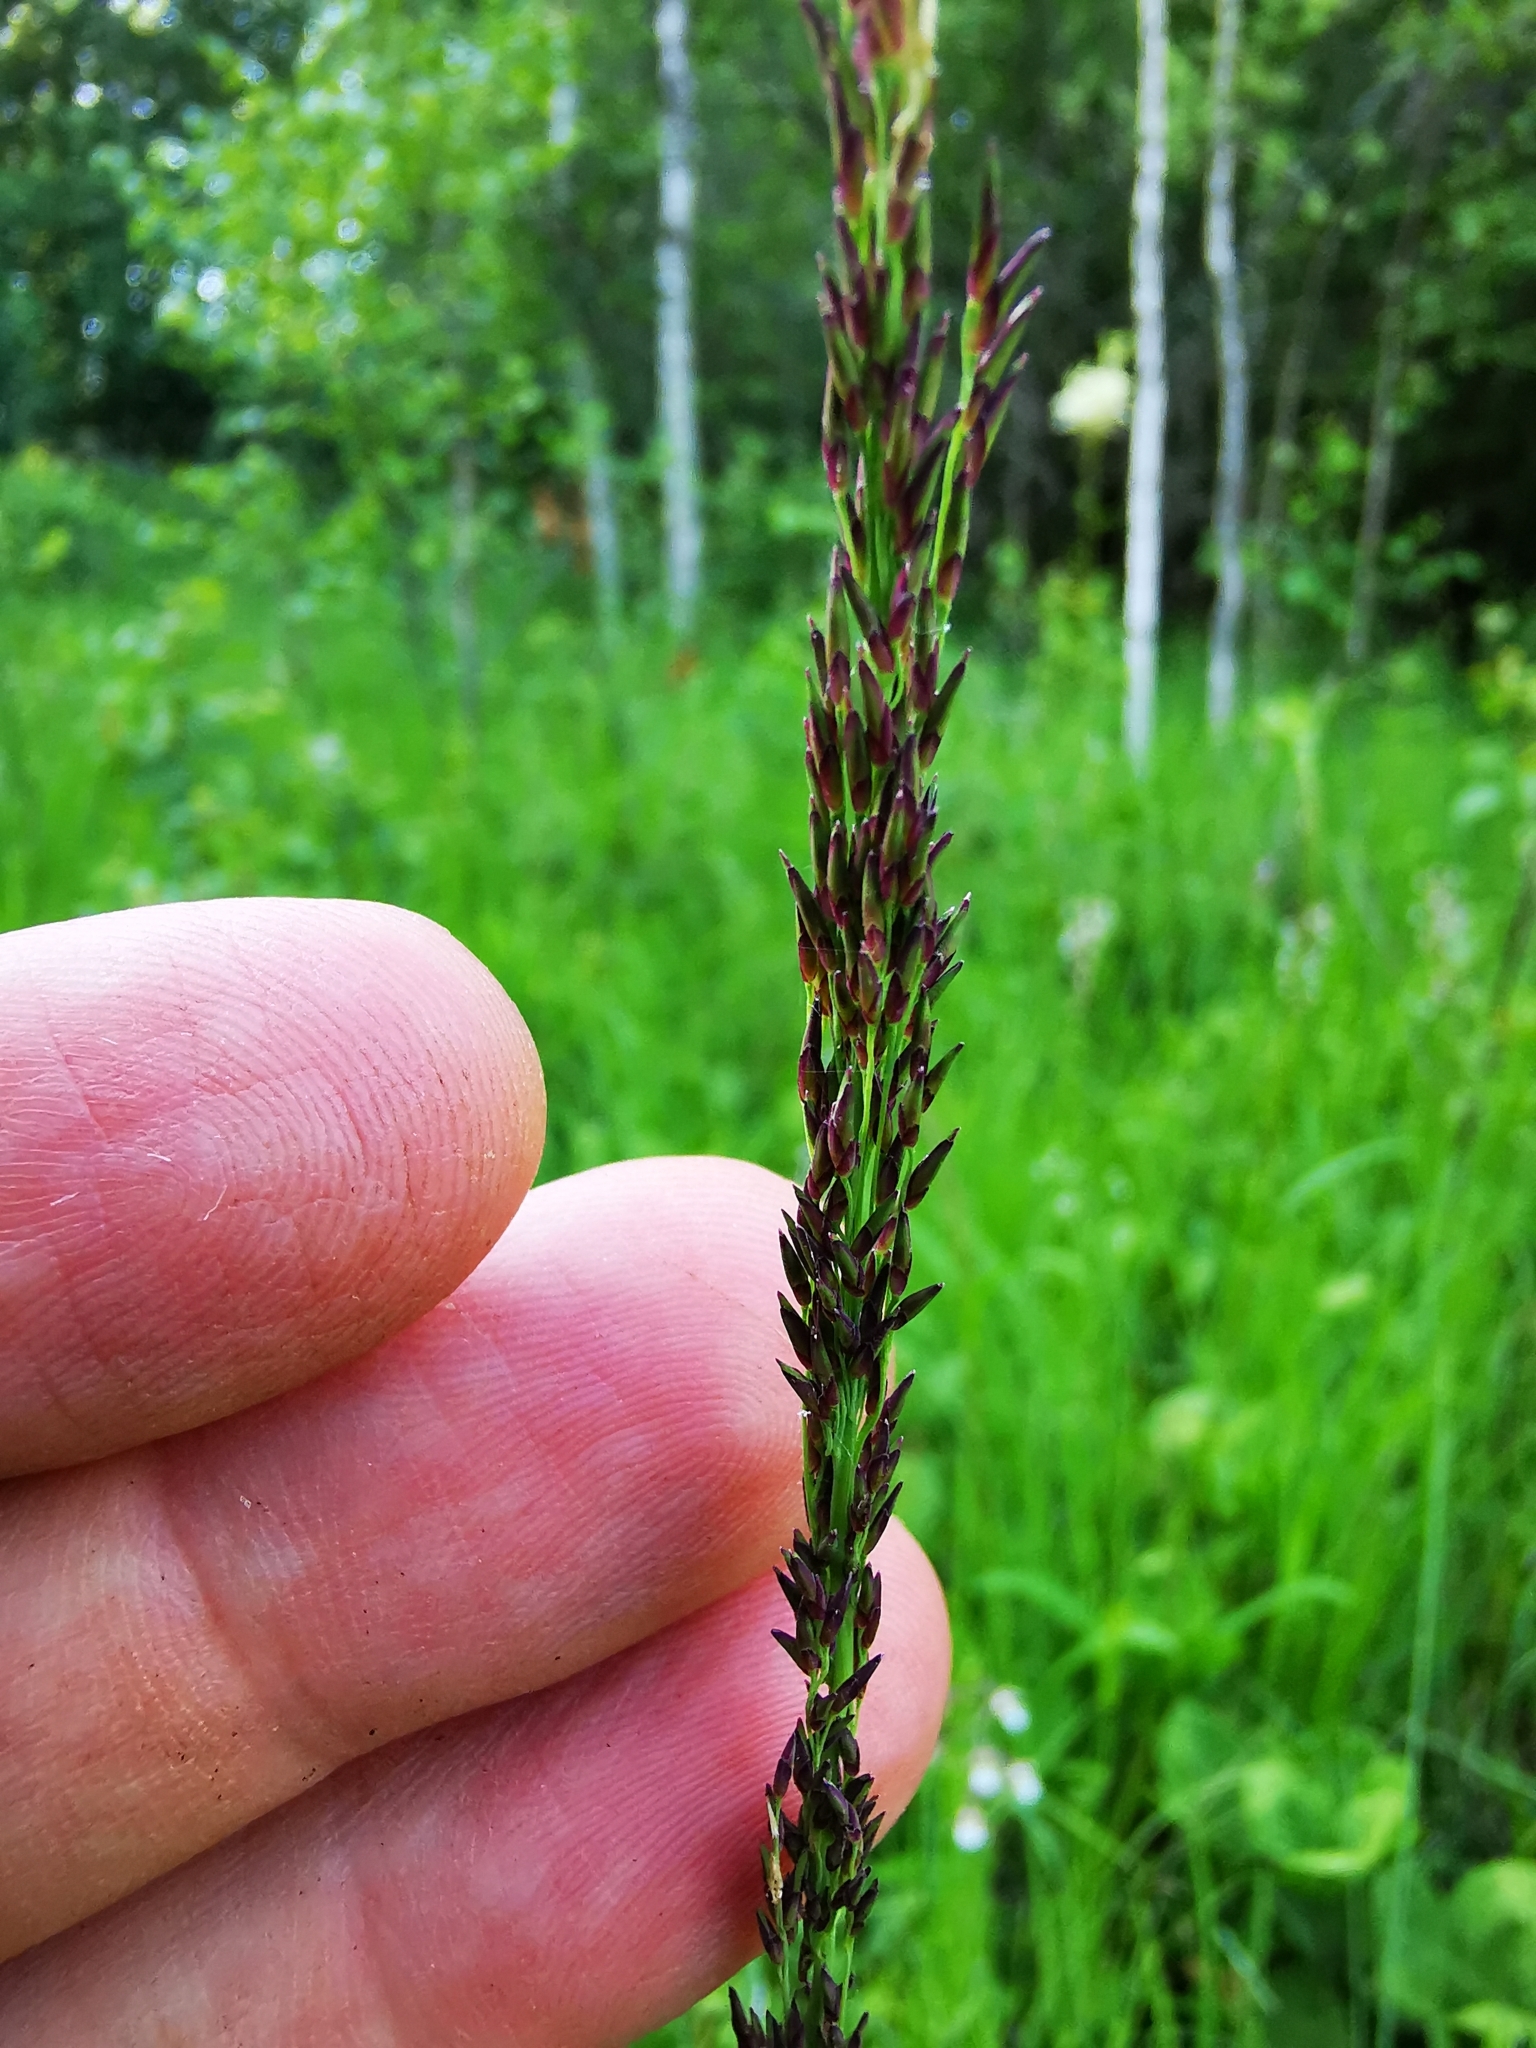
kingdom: Plantae
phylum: Tracheophyta
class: Liliopsida
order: Poales
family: Poaceae
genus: Molinia
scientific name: Molinia caerulea
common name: Purple moor-grass
